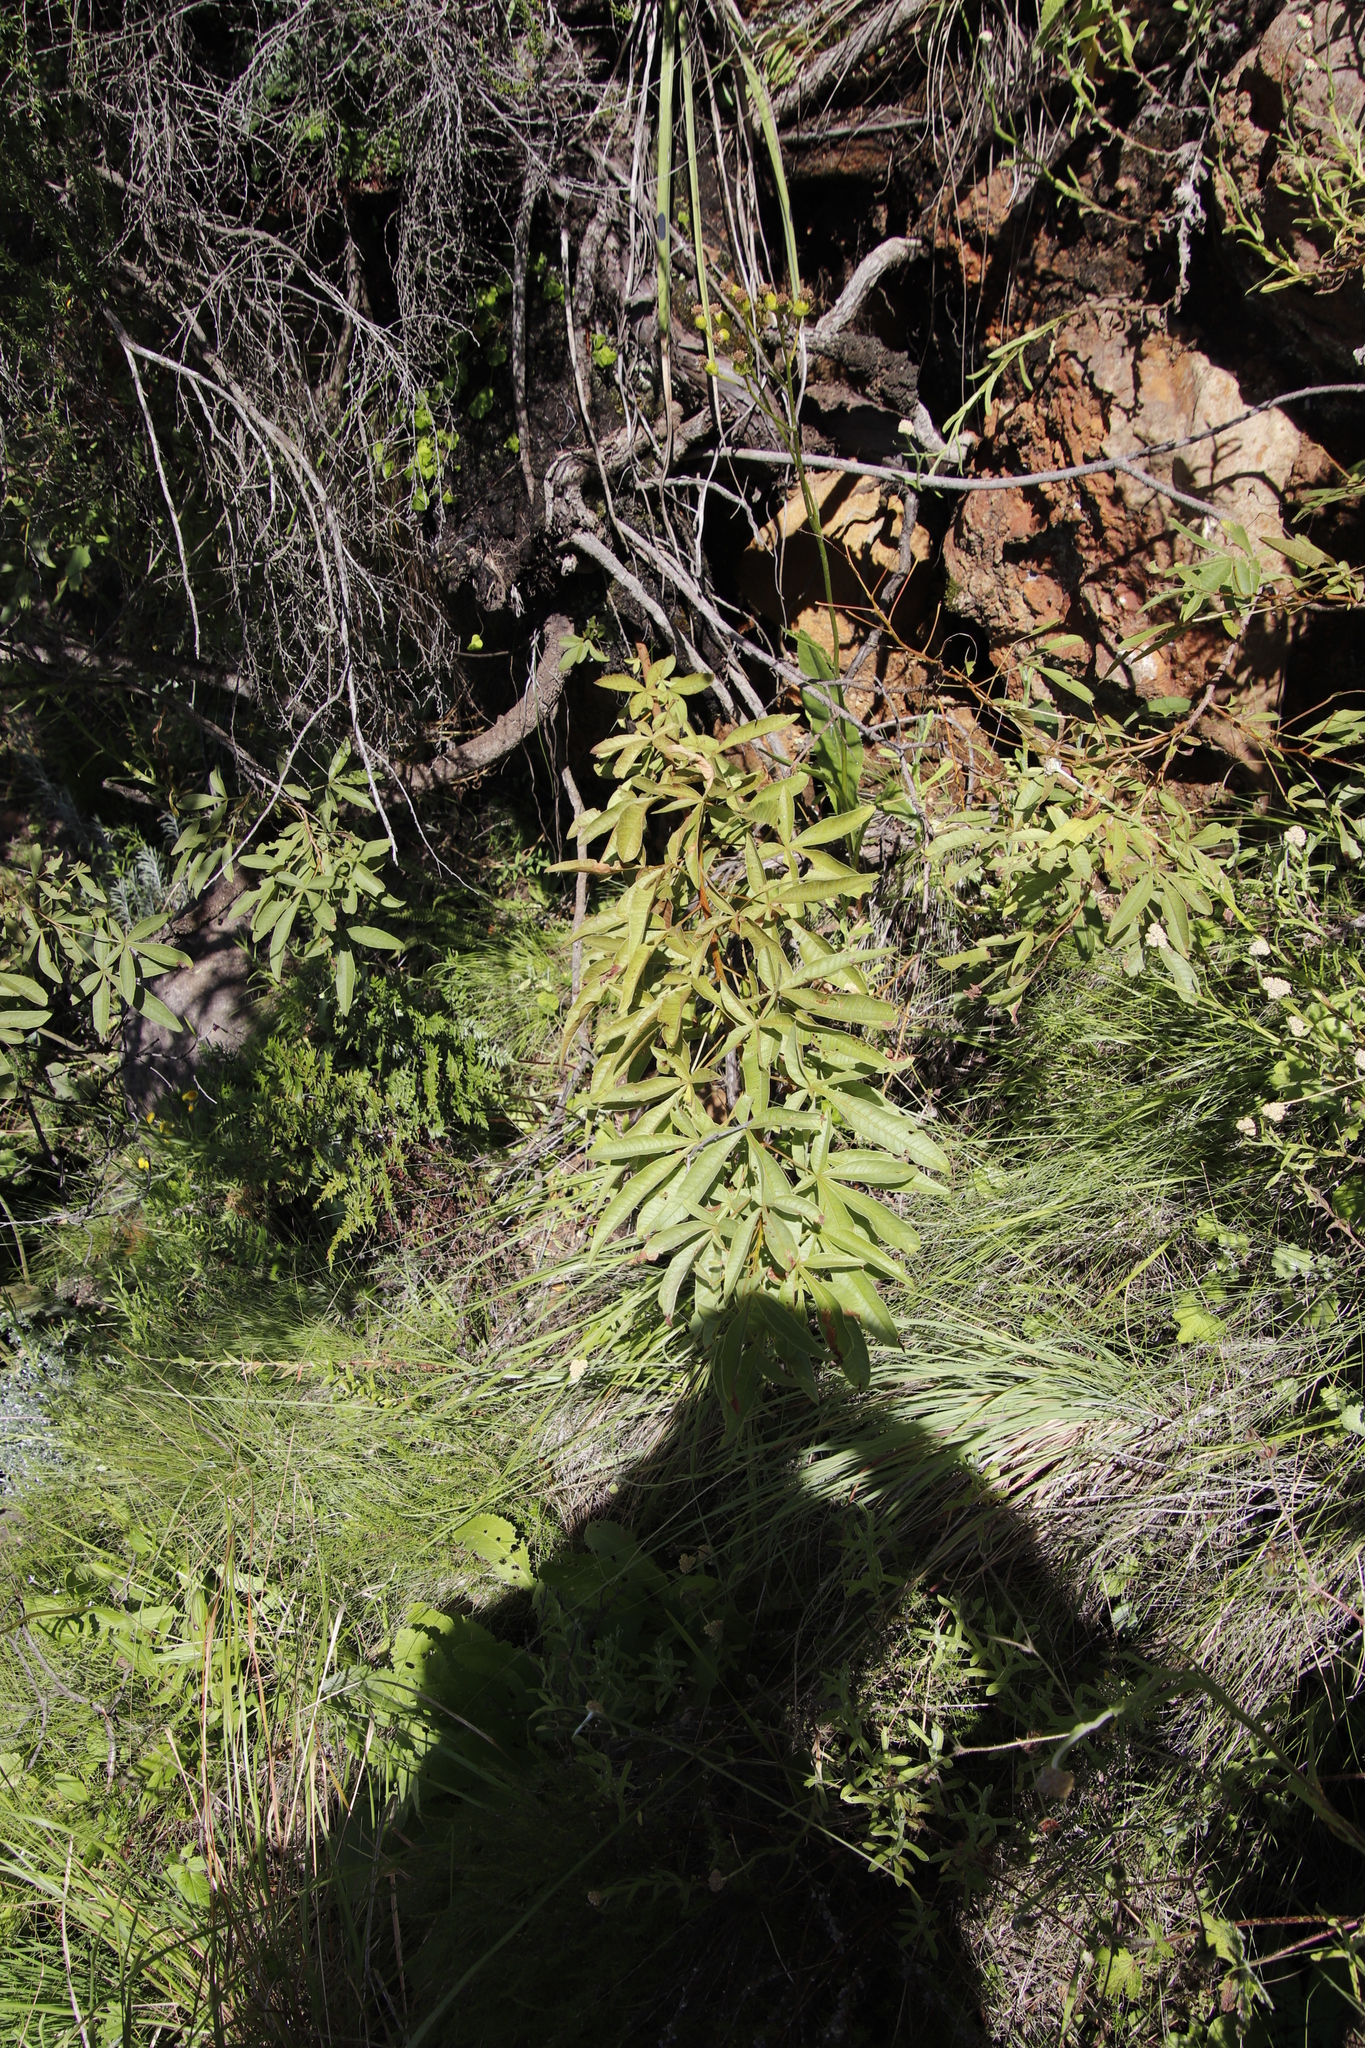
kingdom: Plantae
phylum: Tracheophyta
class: Magnoliopsida
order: Sapindales
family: Anacardiaceae
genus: Searsia
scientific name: Searsia montana
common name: Drakensberg karee
